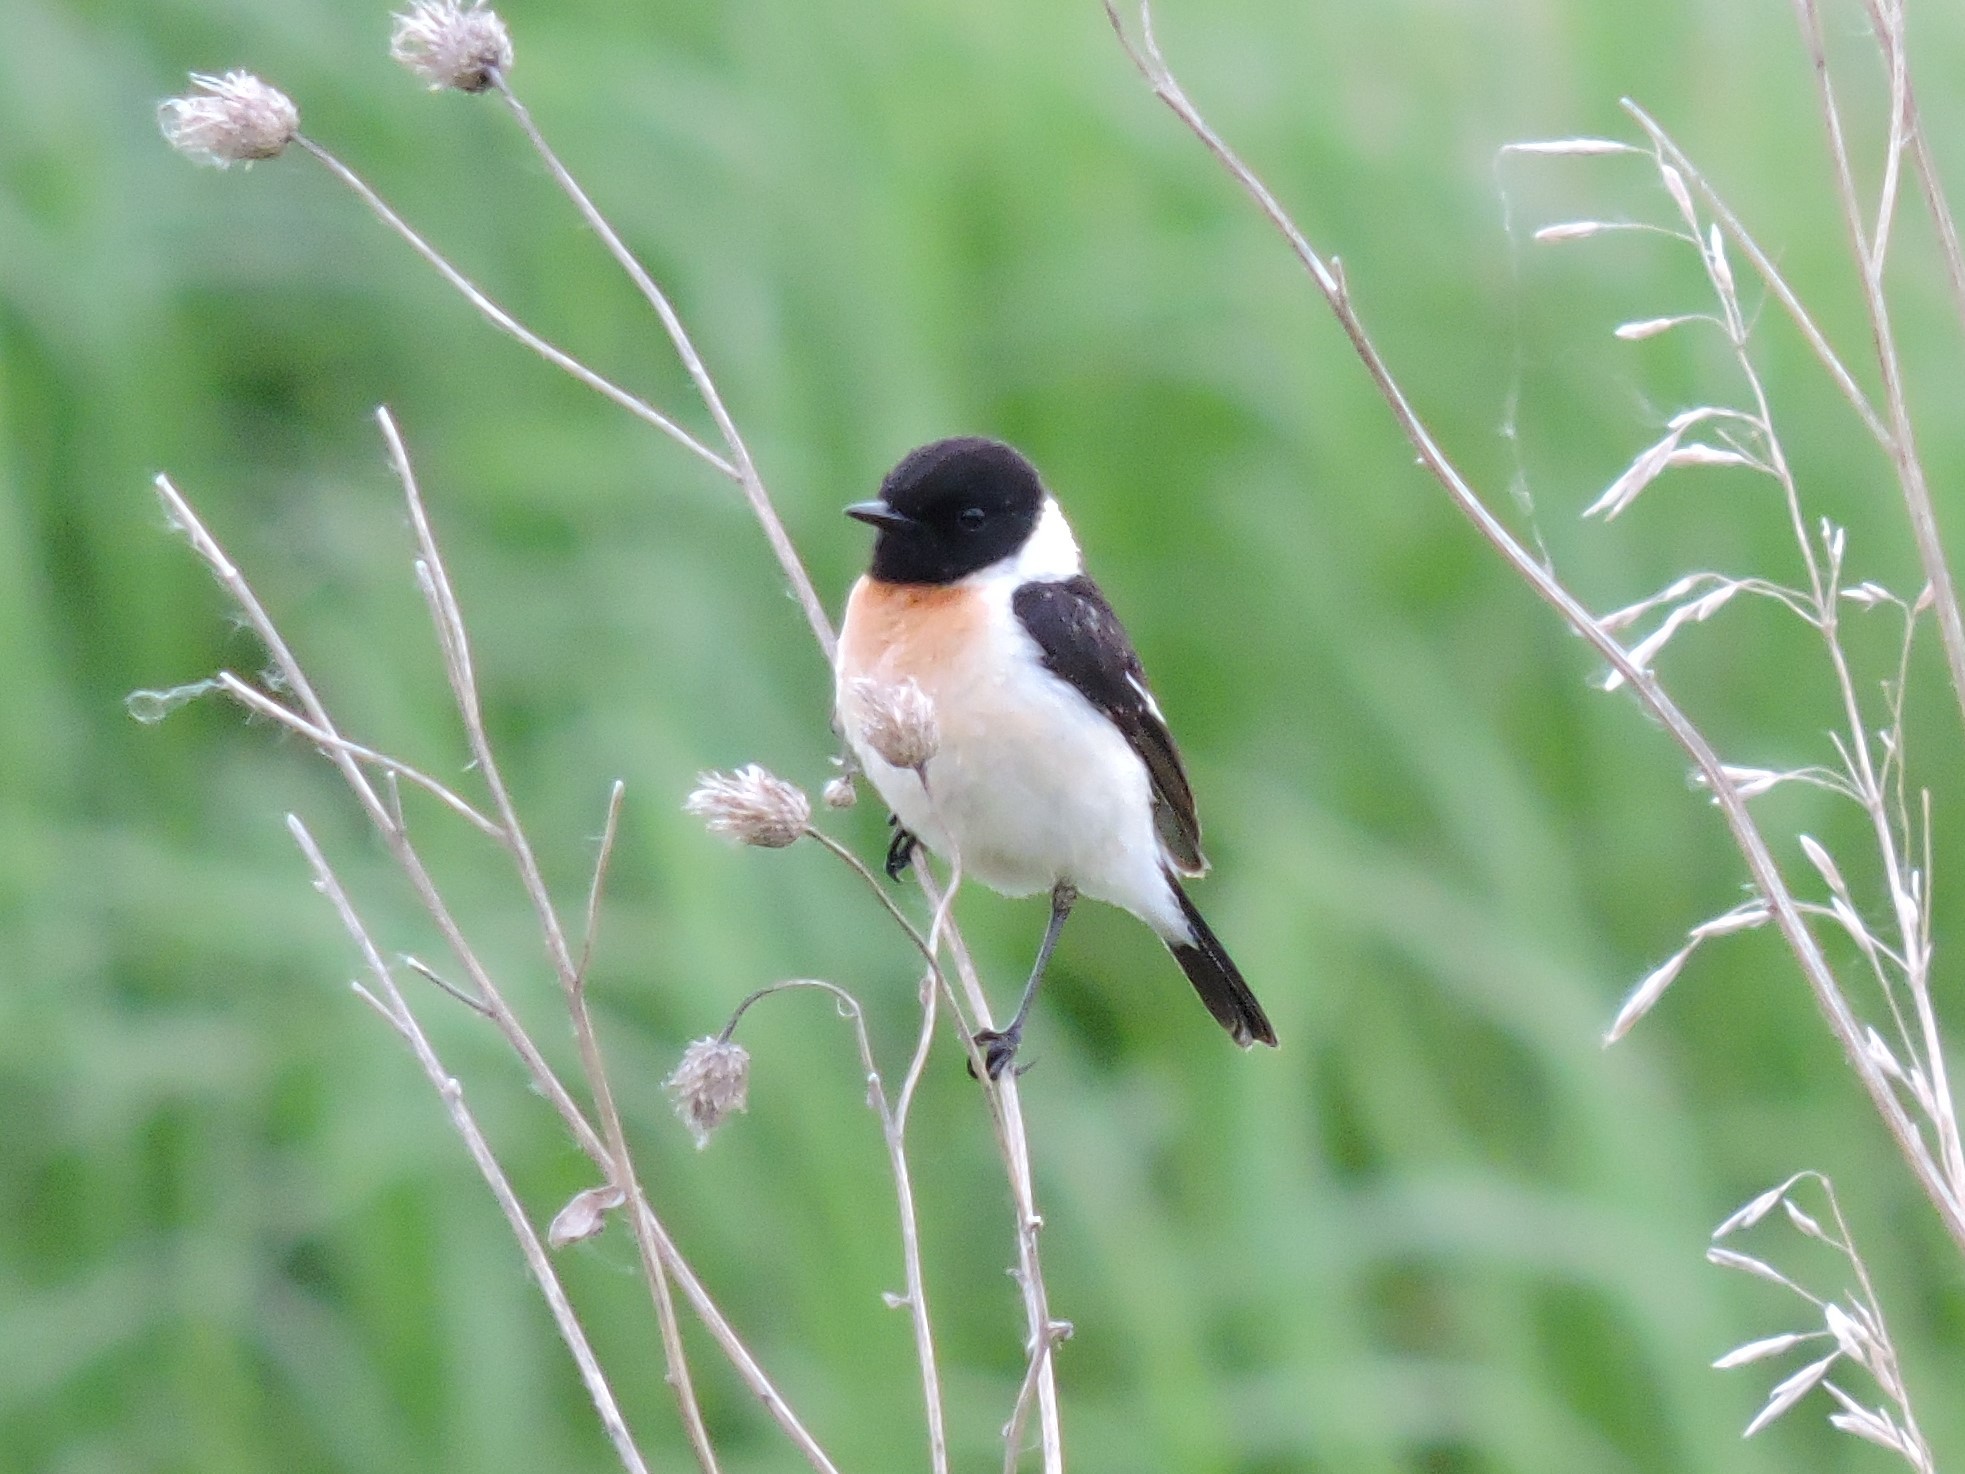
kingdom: Animalia
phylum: Chordata
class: Aves
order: Passeriformes
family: Muscicapidae
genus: Saxicola
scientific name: Saxicola maurus
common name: Siberian stonechat
